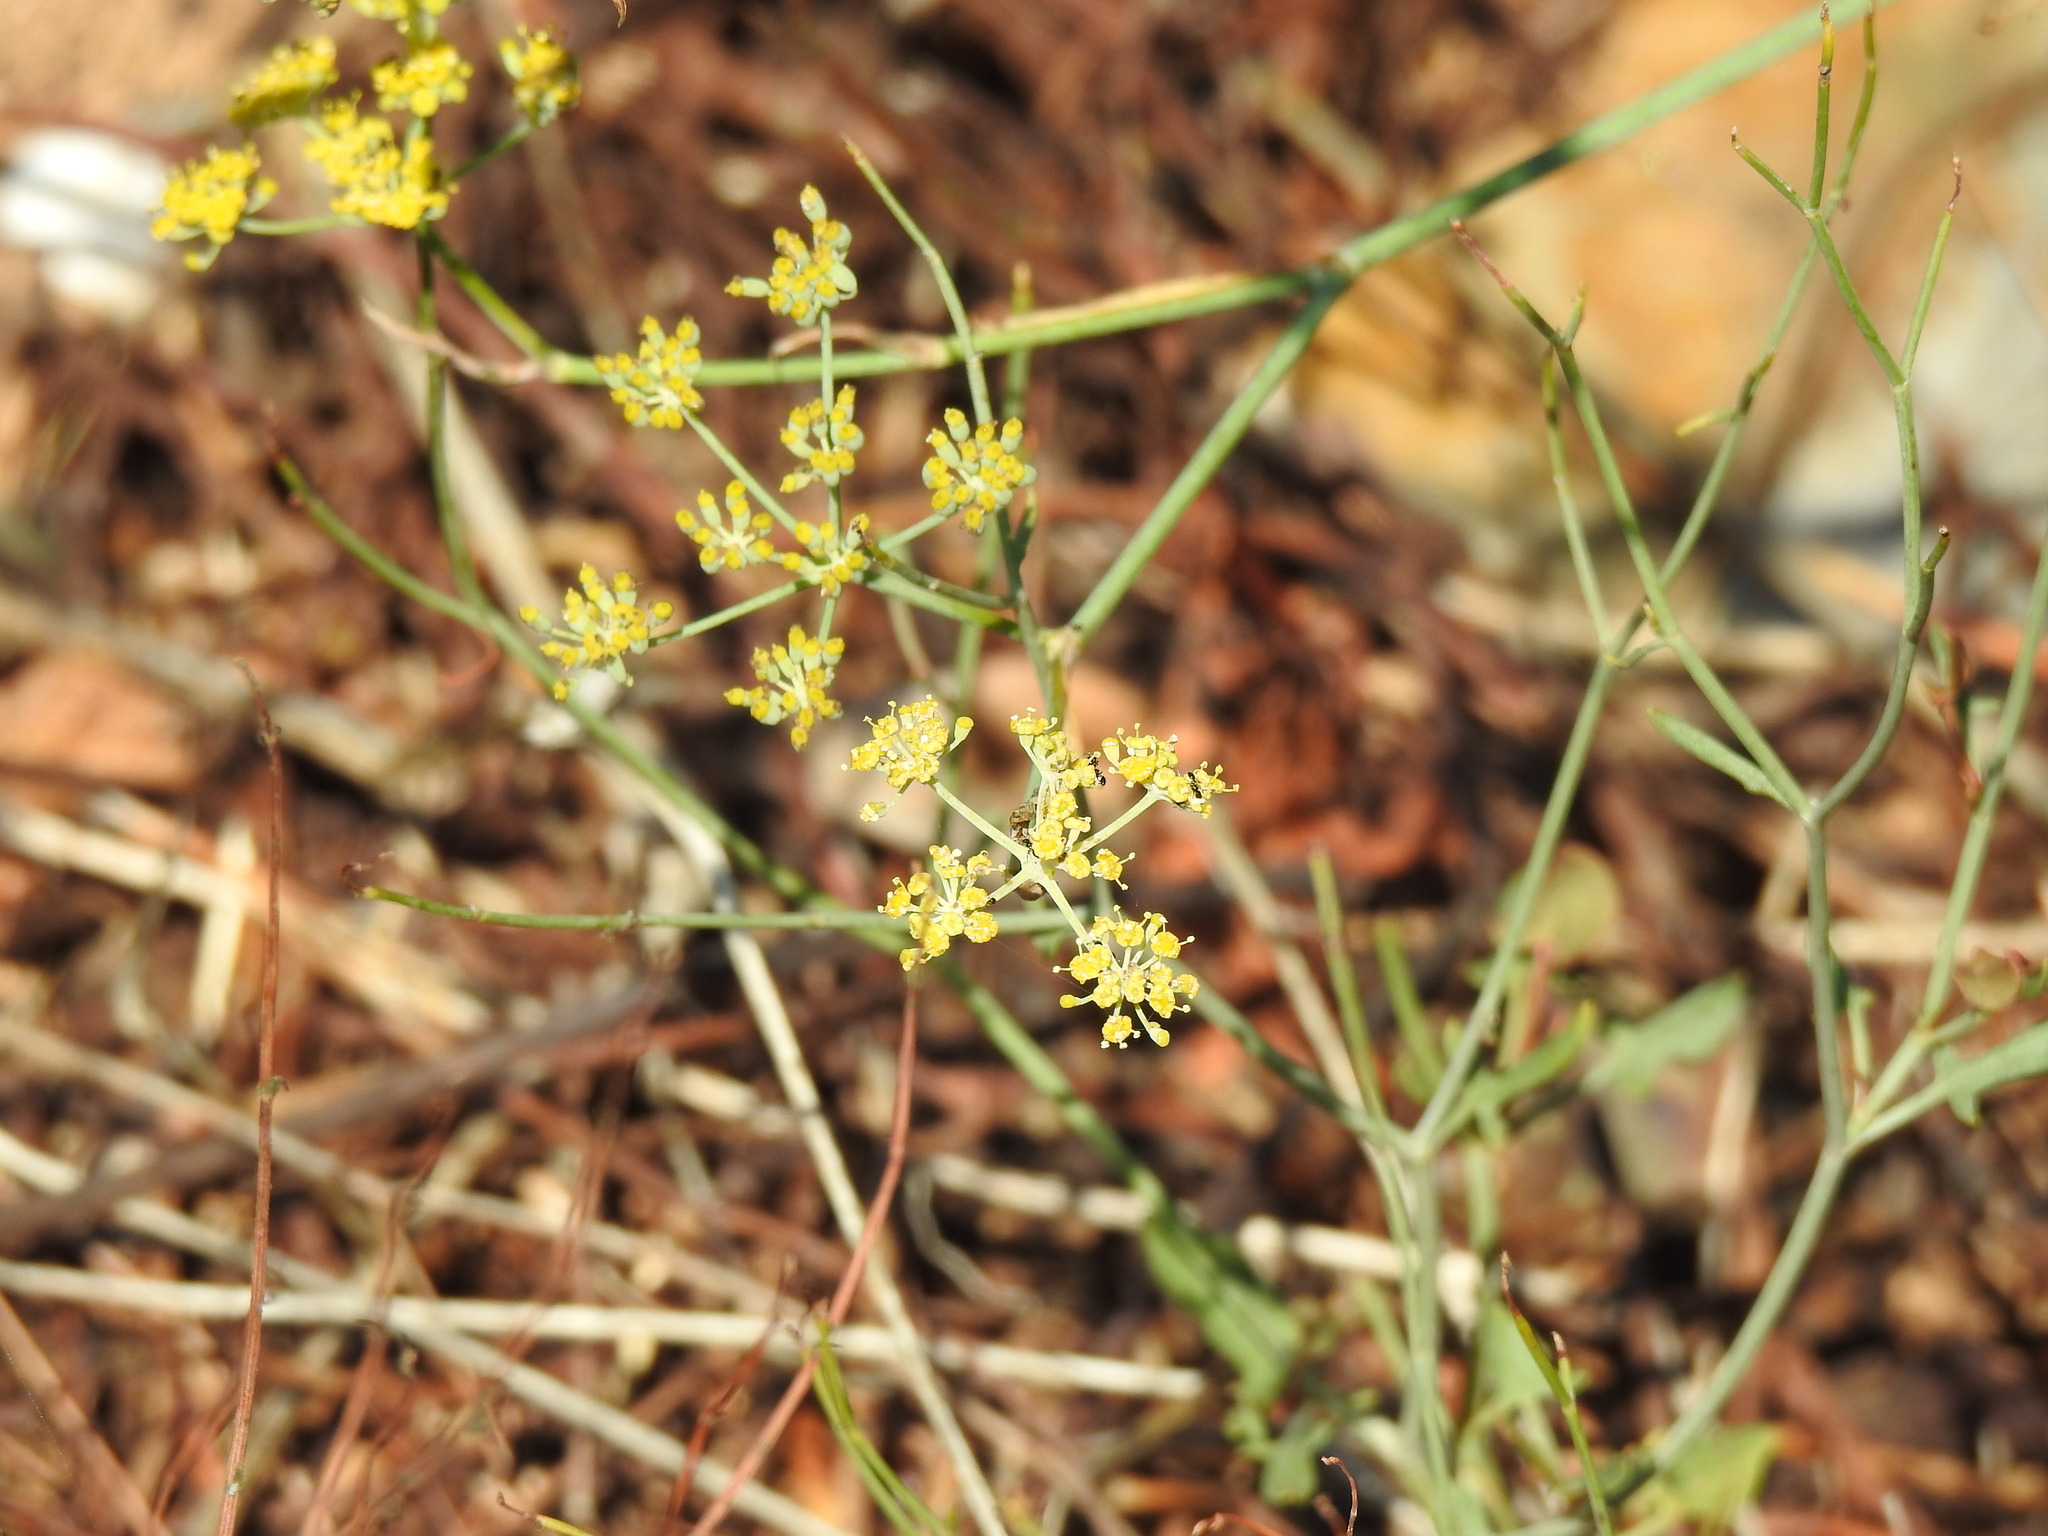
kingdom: Plantae
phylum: Tracheophyta
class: Magnoliopsida
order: Apiales
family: Apiaceae
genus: Foeniculum
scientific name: Foeniculum vulgare
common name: Fennel
